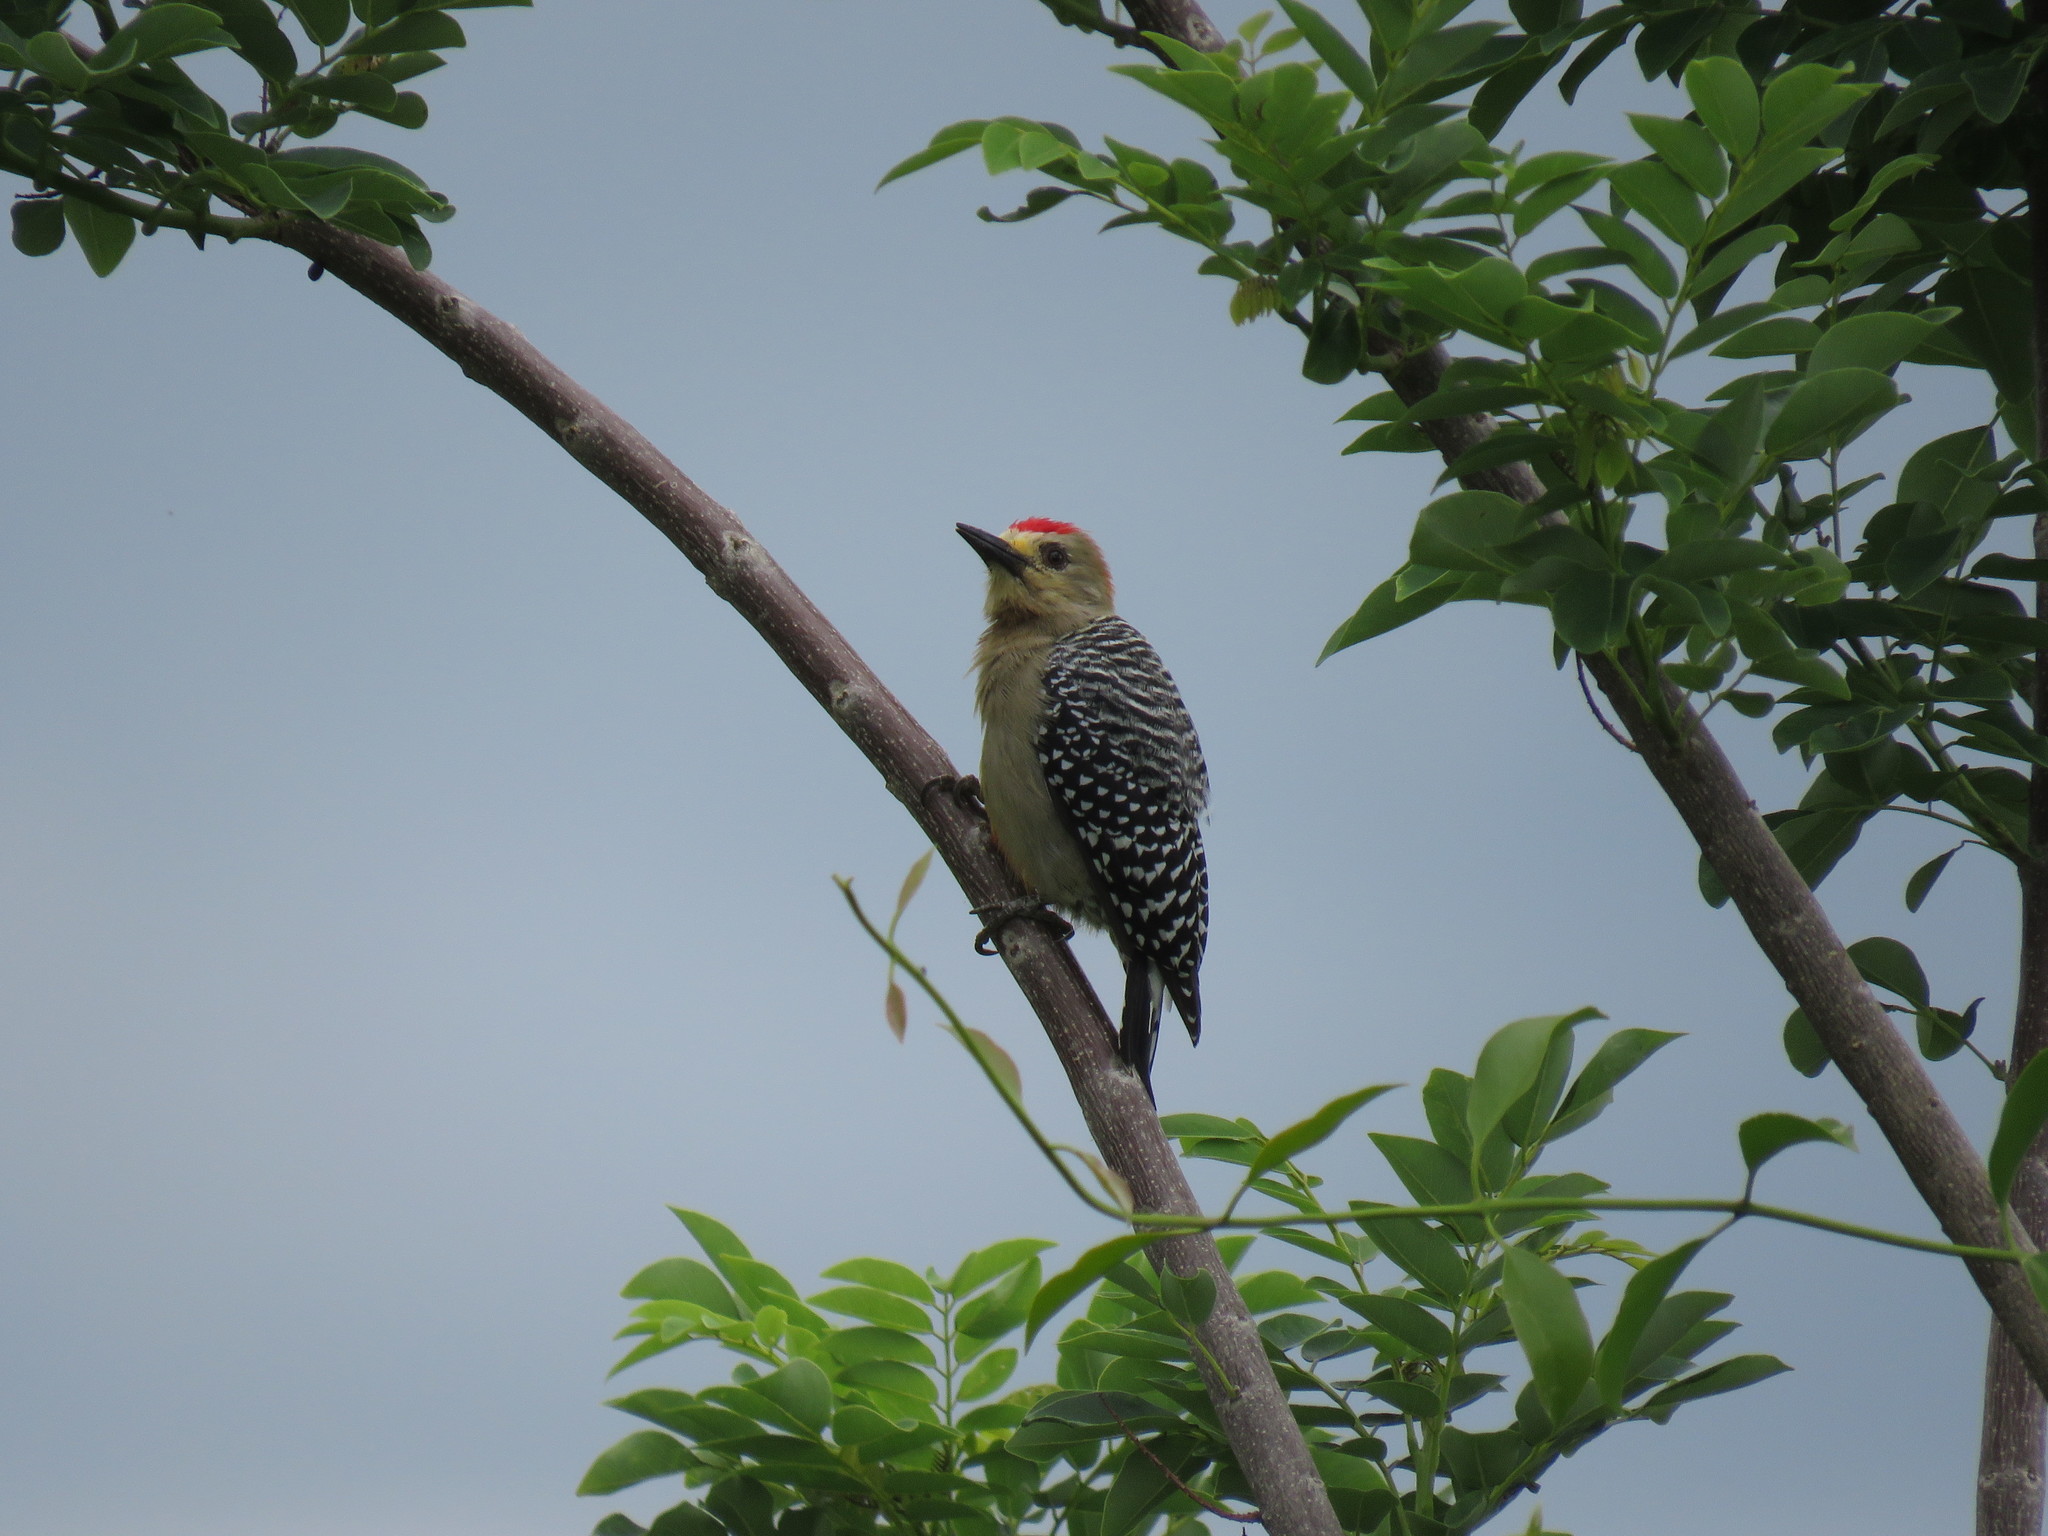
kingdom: Animalia
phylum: Chordata
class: Aves
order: Piciformes
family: Picidae
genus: Melanerpes
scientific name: Melanerpes rubricapillus
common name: Red-crowned woodpecker
